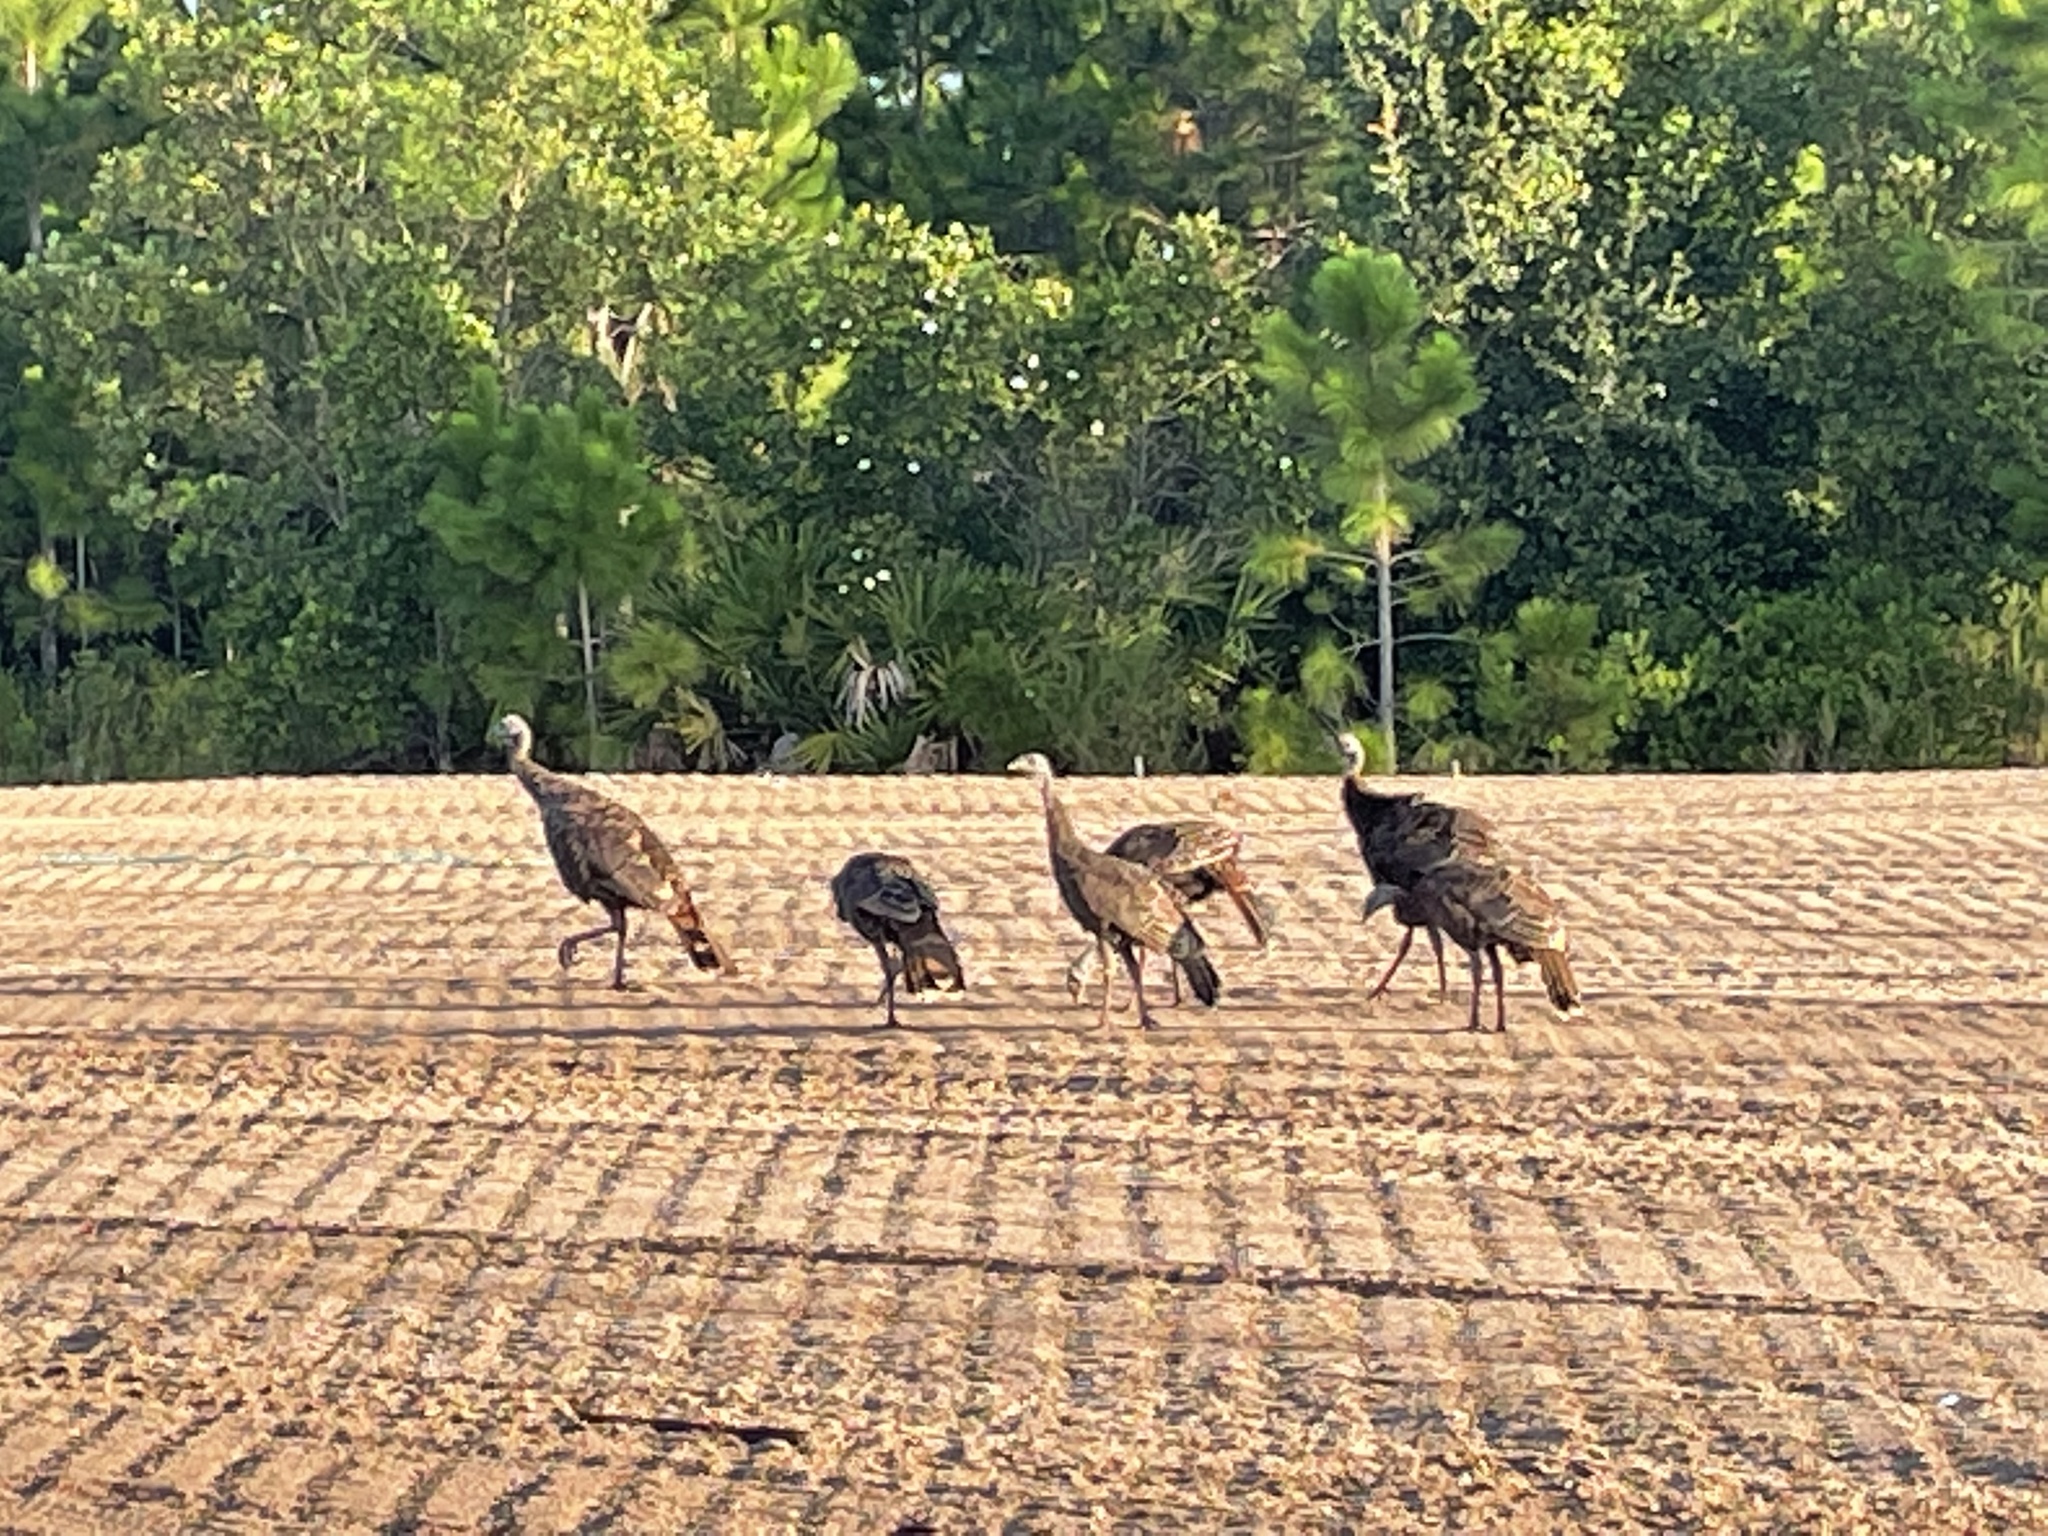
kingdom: Animalia
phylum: Chordata
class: Aves
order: Galliformes
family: Phasianidae
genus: Meleagris
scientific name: Meleagris gallopavo
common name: Wild turkey
